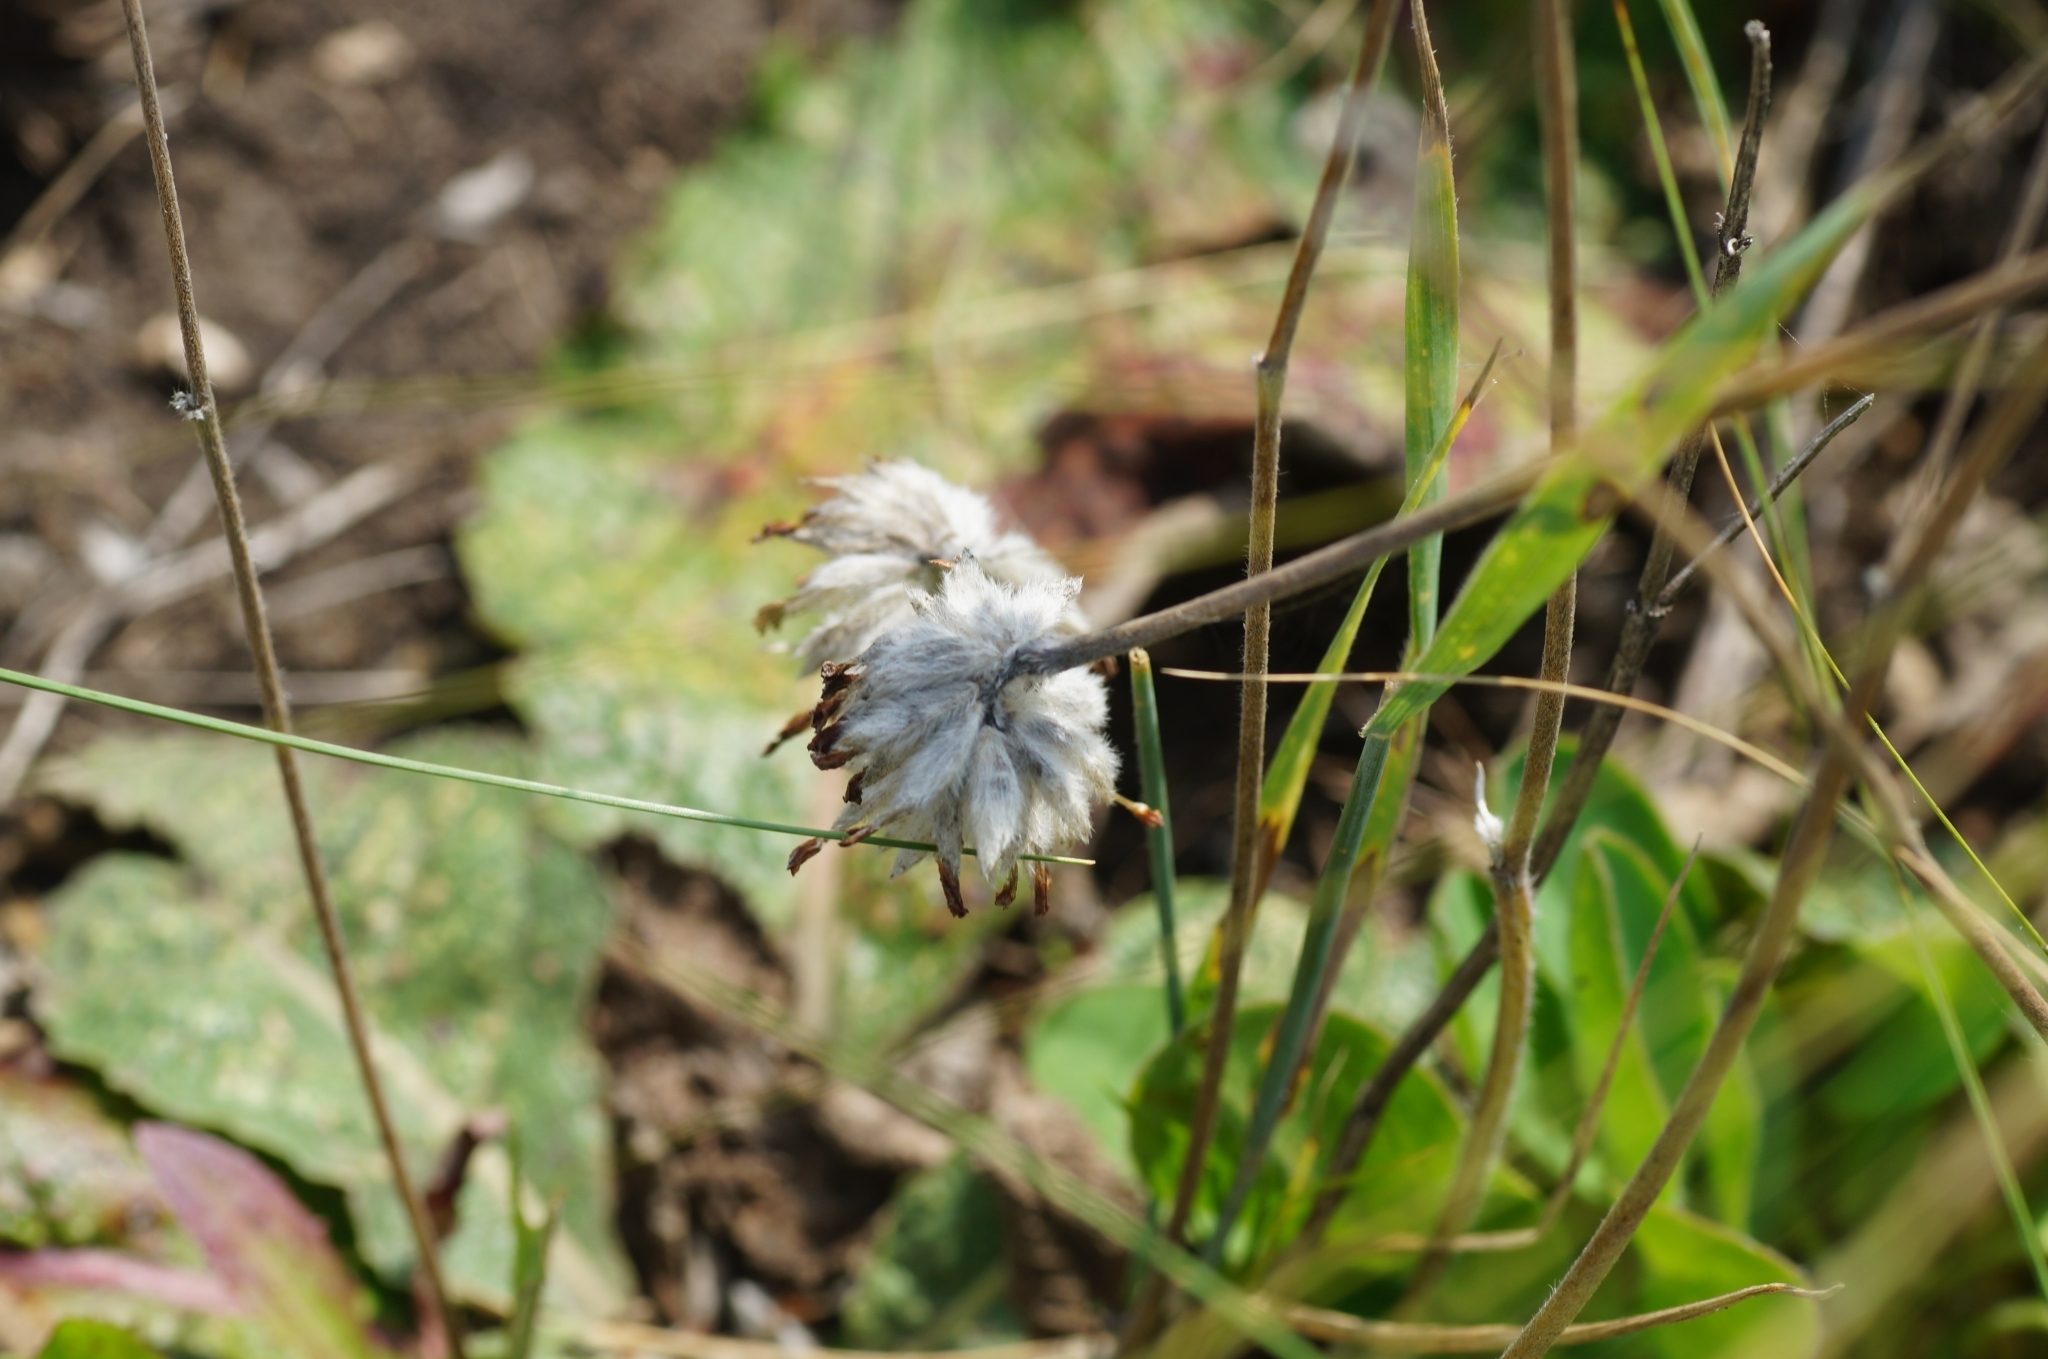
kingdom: Plantae
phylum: Tracheophyta
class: Magnoliopsida
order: Fabales
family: Fabaceae
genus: Anthyllis
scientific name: Anthyllis vulneraria
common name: Kidney vetch
